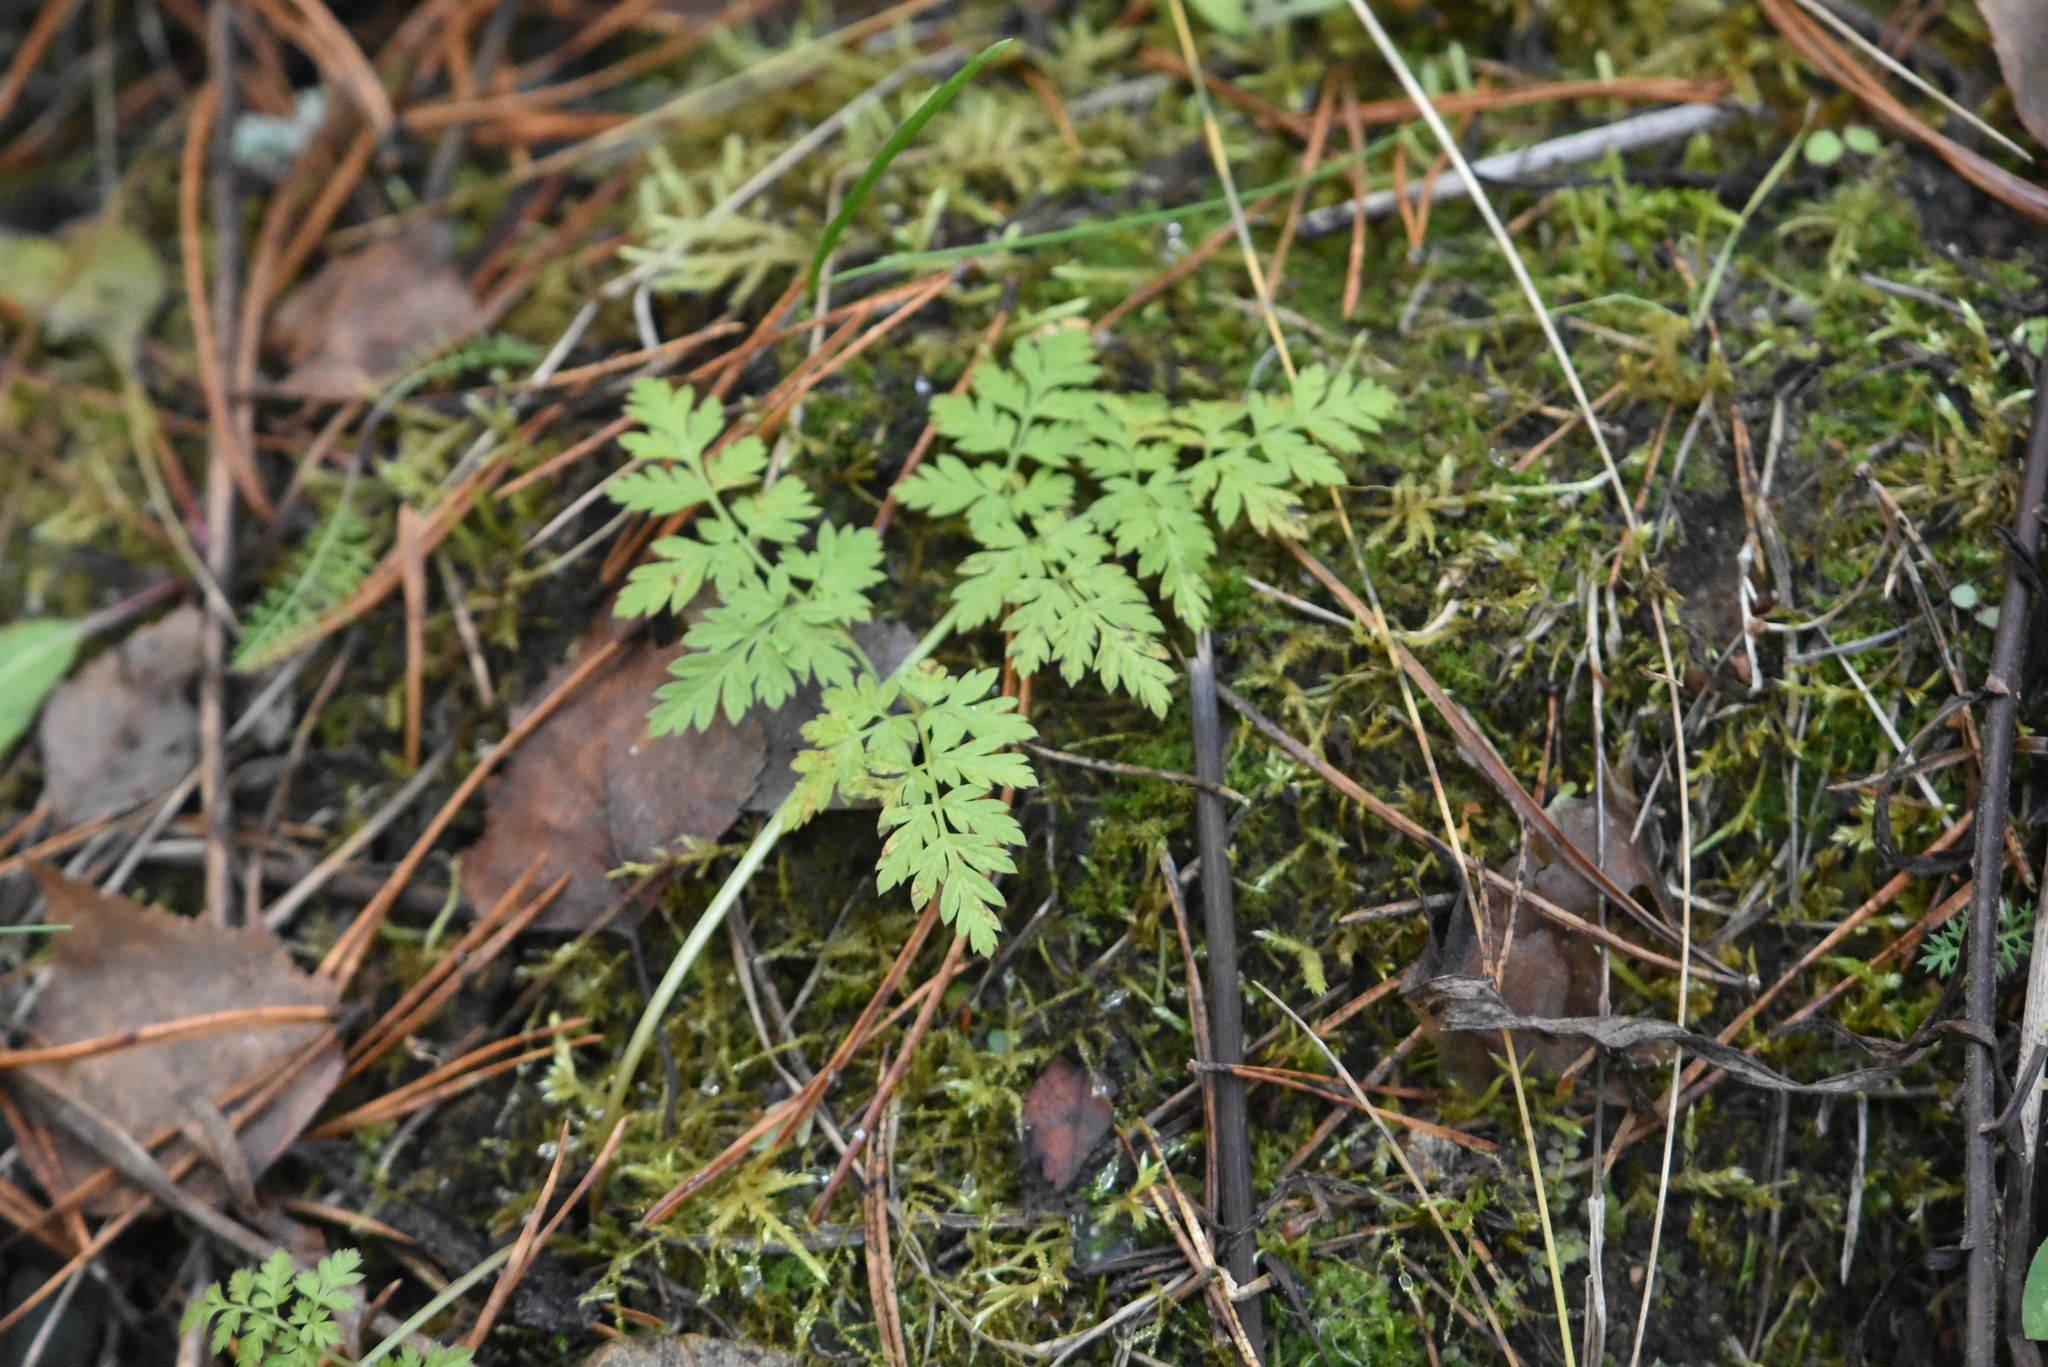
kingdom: Plantae
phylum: Tracheophyta
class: Magnoliopsida
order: Apiales
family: Apiaceae
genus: Anthriscus
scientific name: Anthriscus sylvestris
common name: Cow parsley
